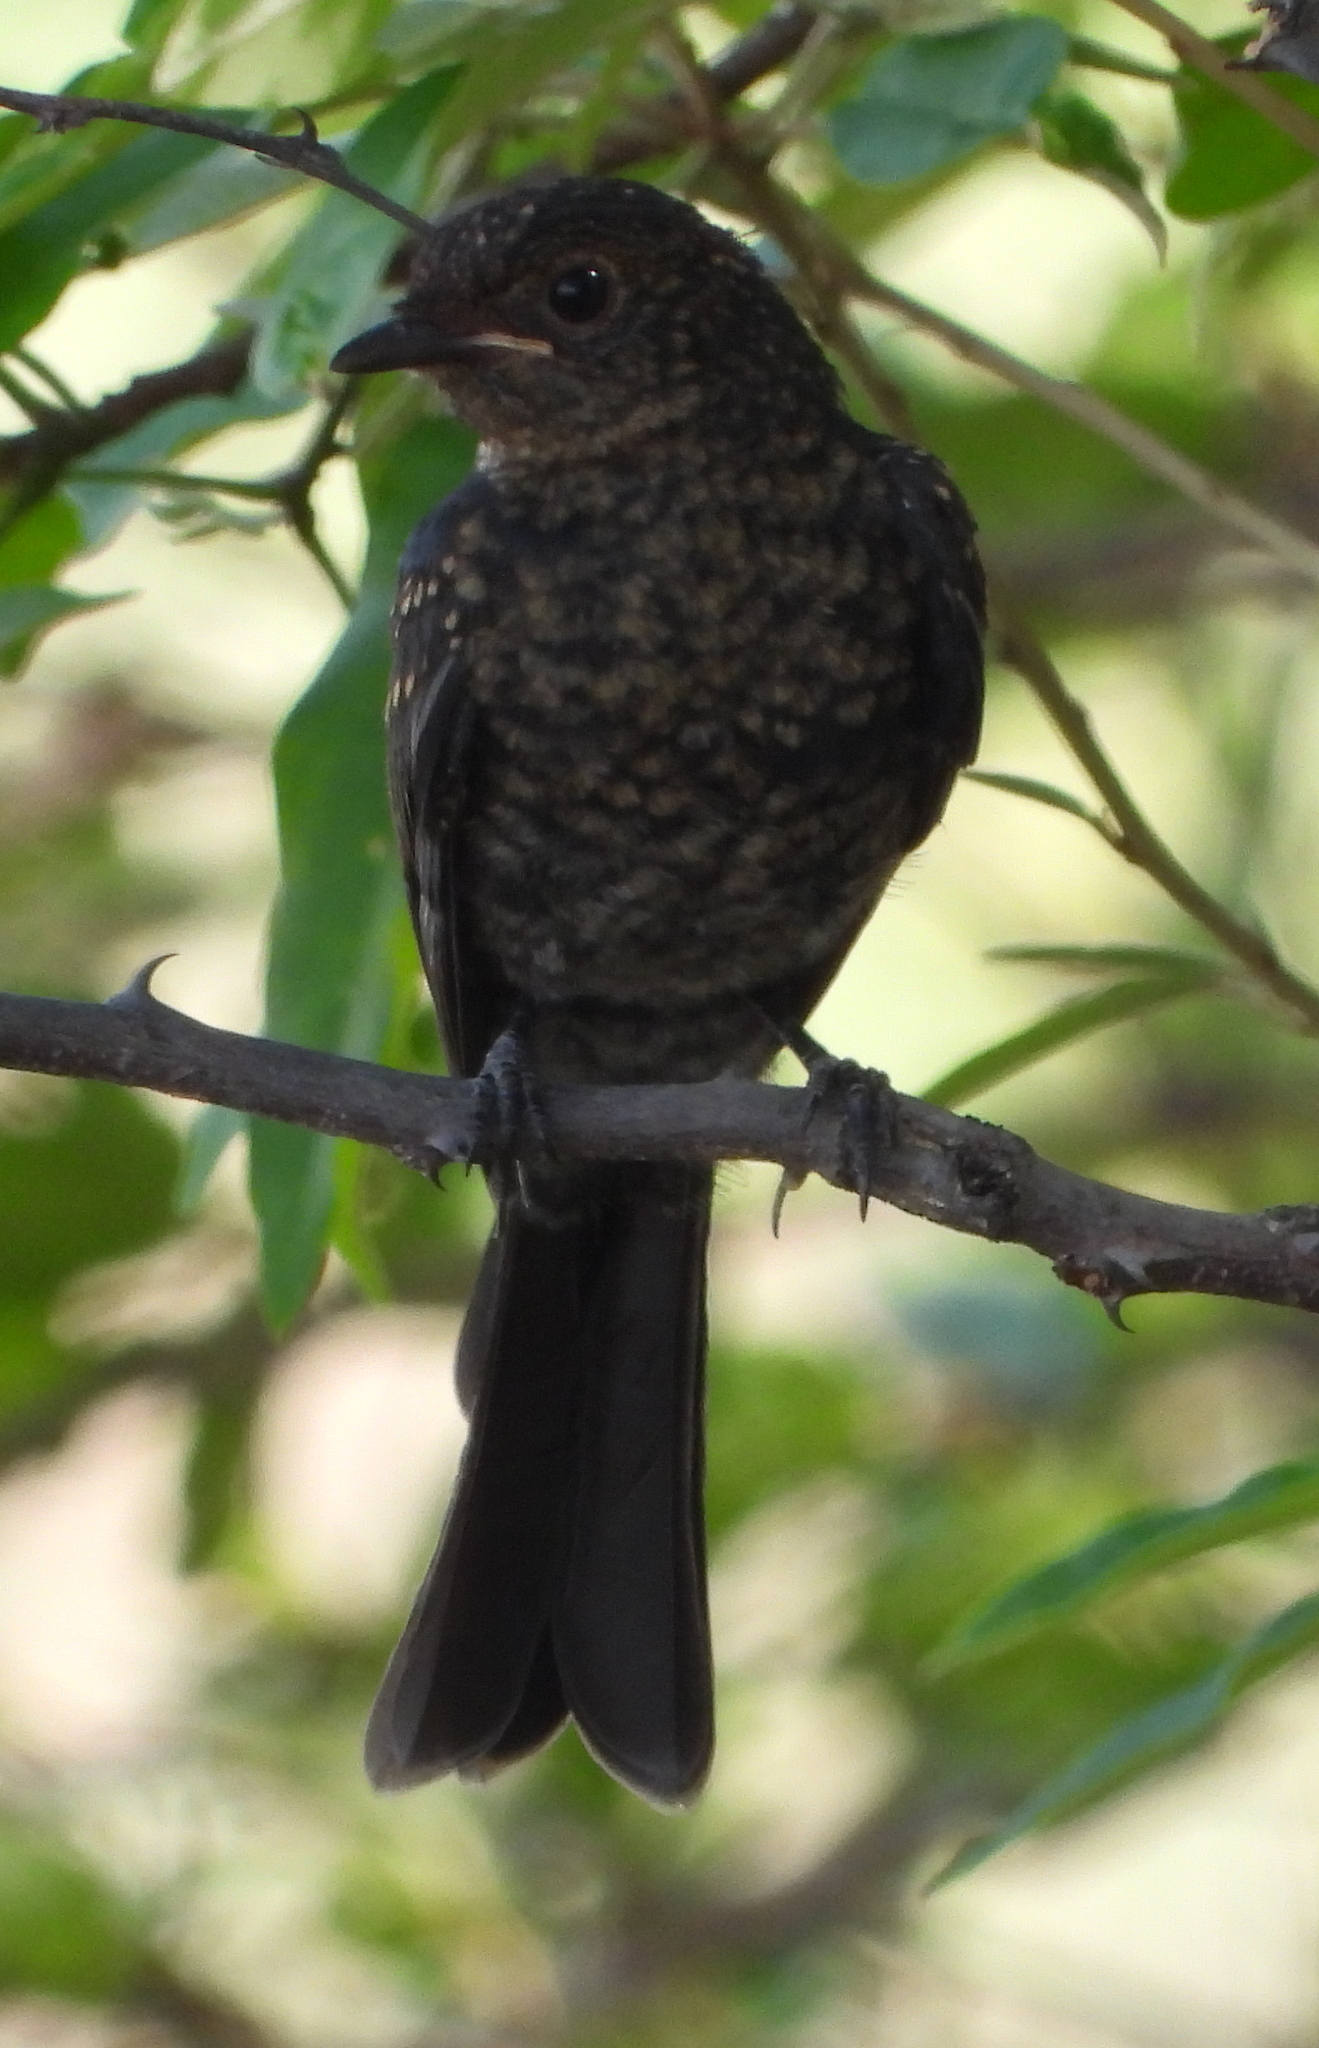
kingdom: Animalia
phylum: Chordata
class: Aves
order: Passeriformes
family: Muscicapidae
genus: Melaenornis
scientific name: Melaenornis pammelaina
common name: Southern black flycatcher
